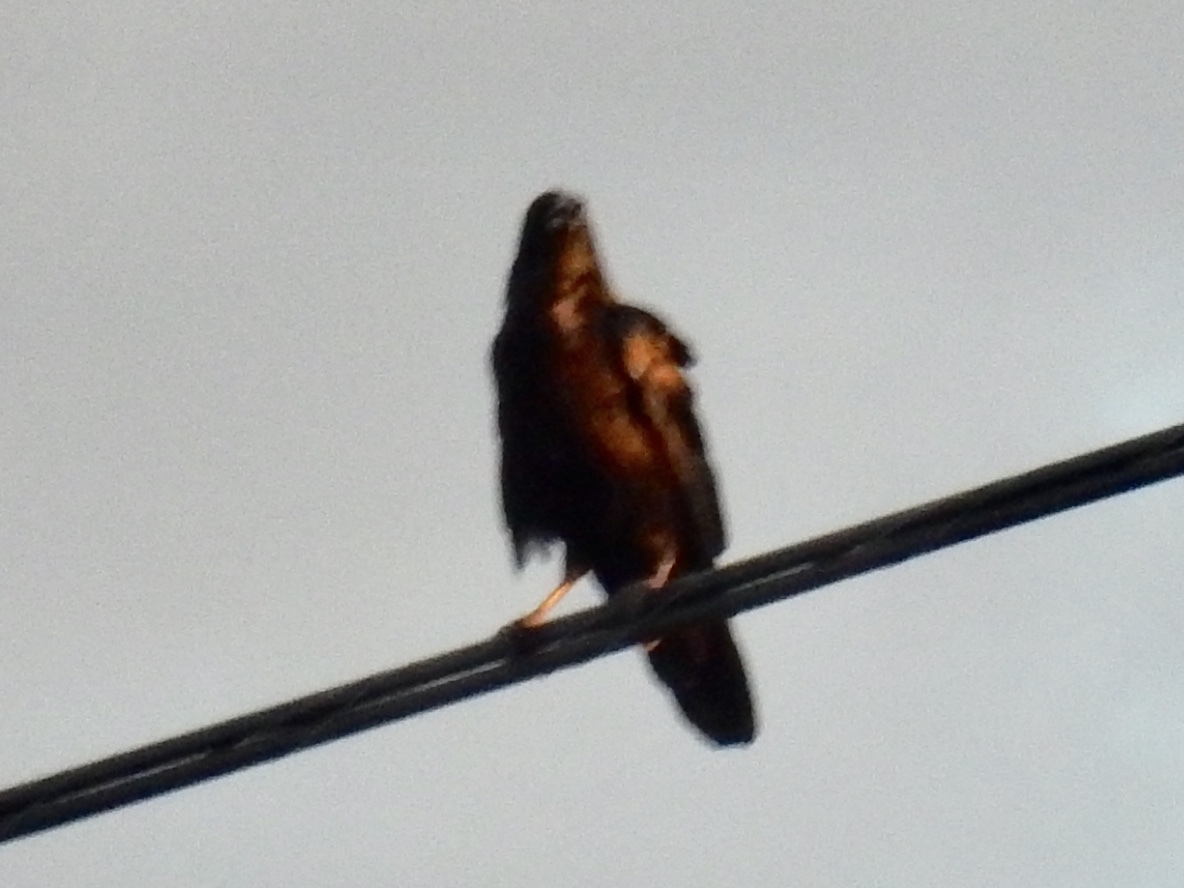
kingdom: Animalia
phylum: Chordata
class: Aves
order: Passeriformes
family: Corvidae
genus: Corvus
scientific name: Corvus cryptoleucus
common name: Chihuahuan raven
